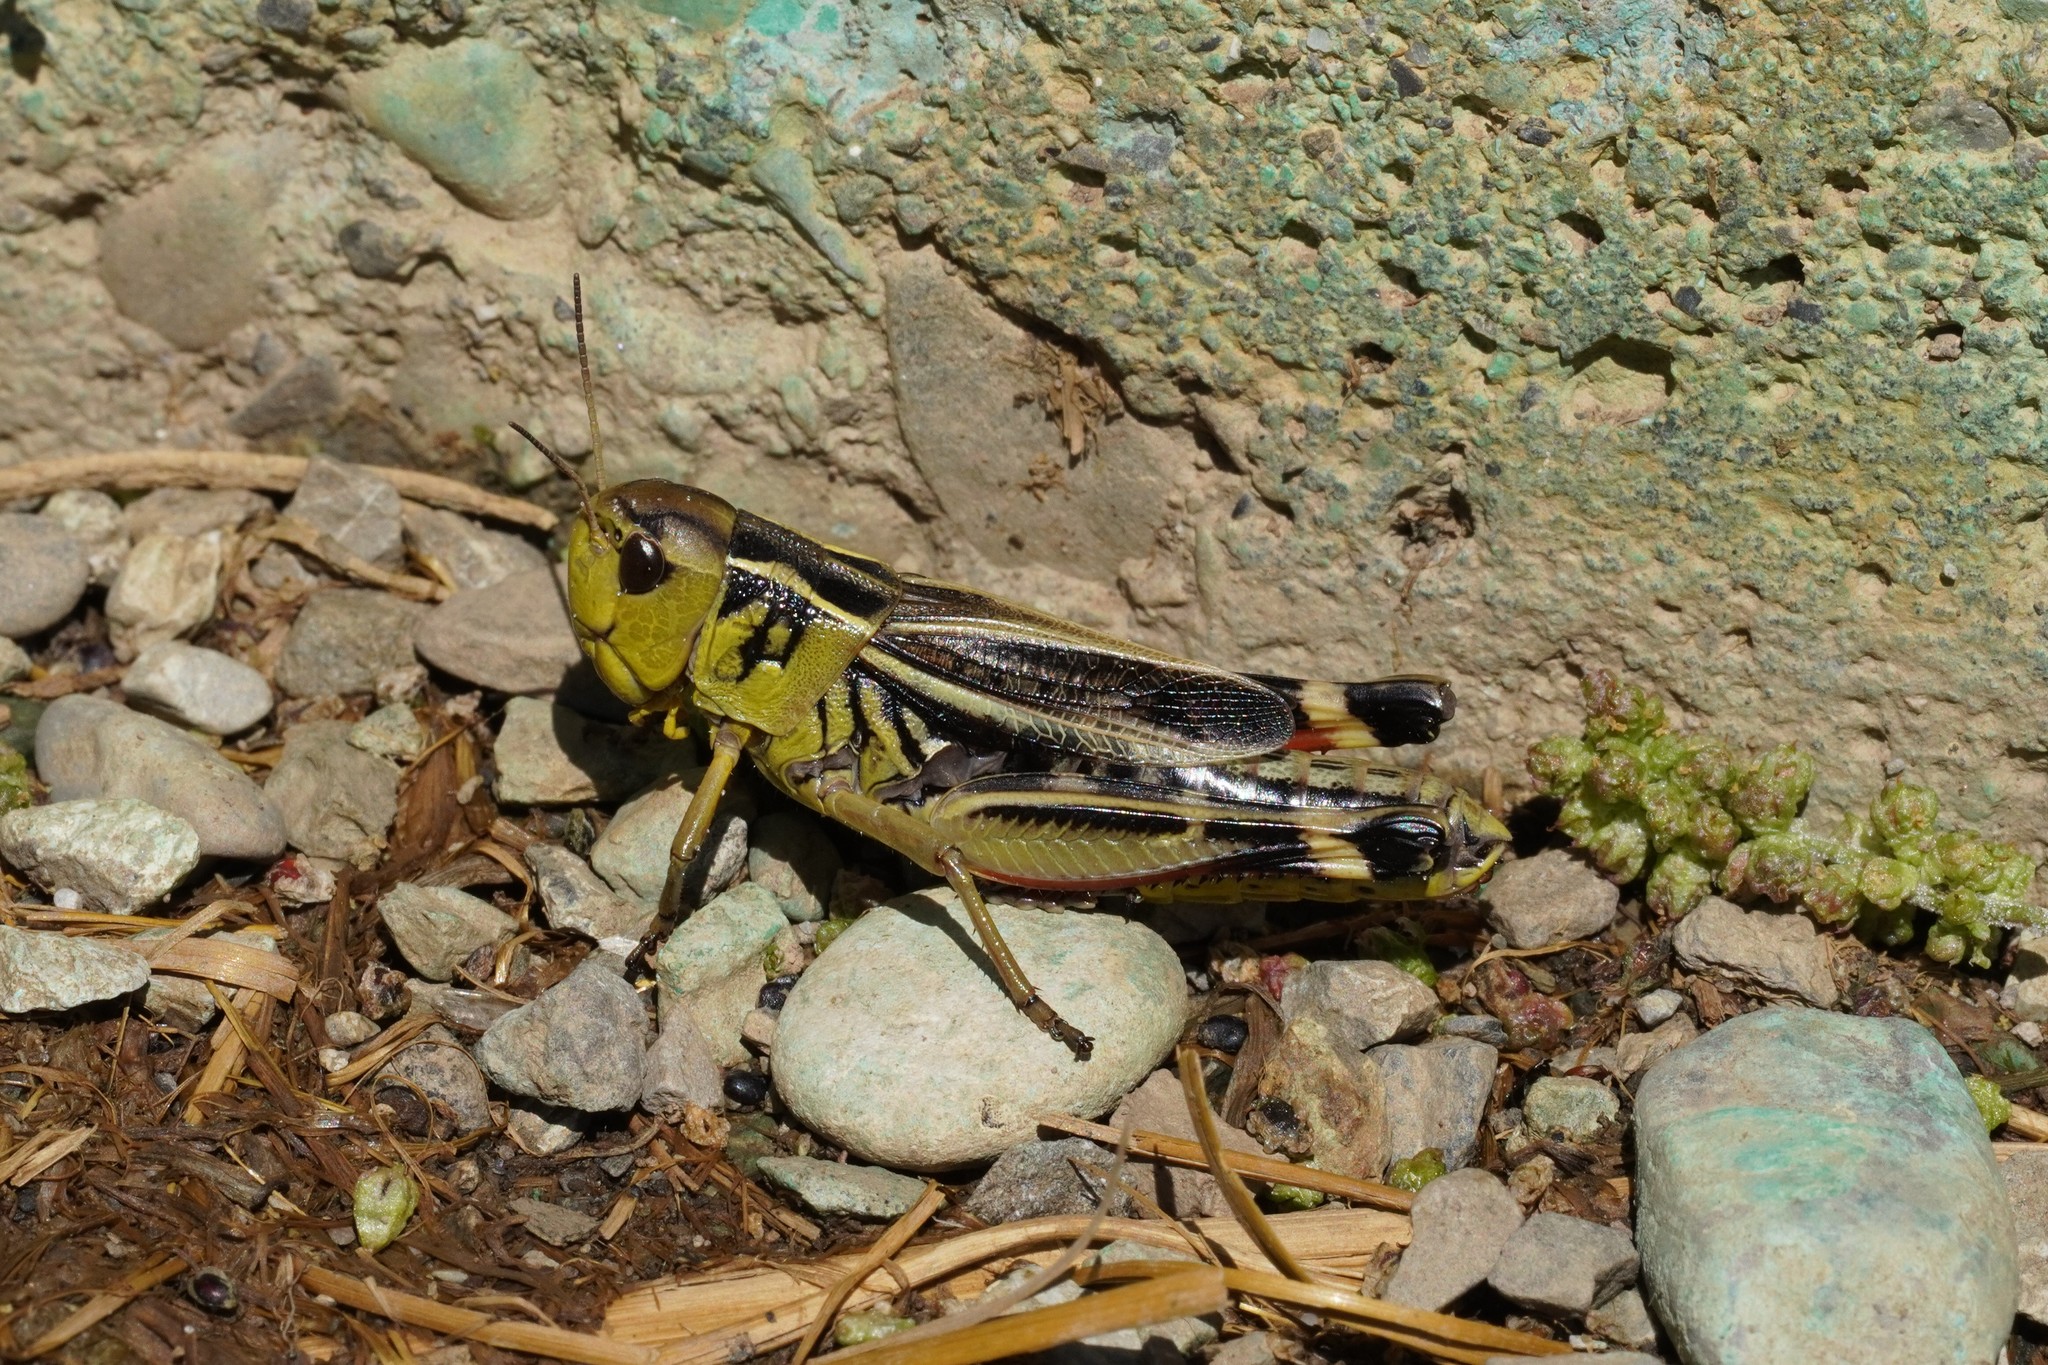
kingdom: Animalia
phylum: Arthropoda
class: Insecta
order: Orthoptera
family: Acrididae
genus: Arcyptera
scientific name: Arcyptera fusca
